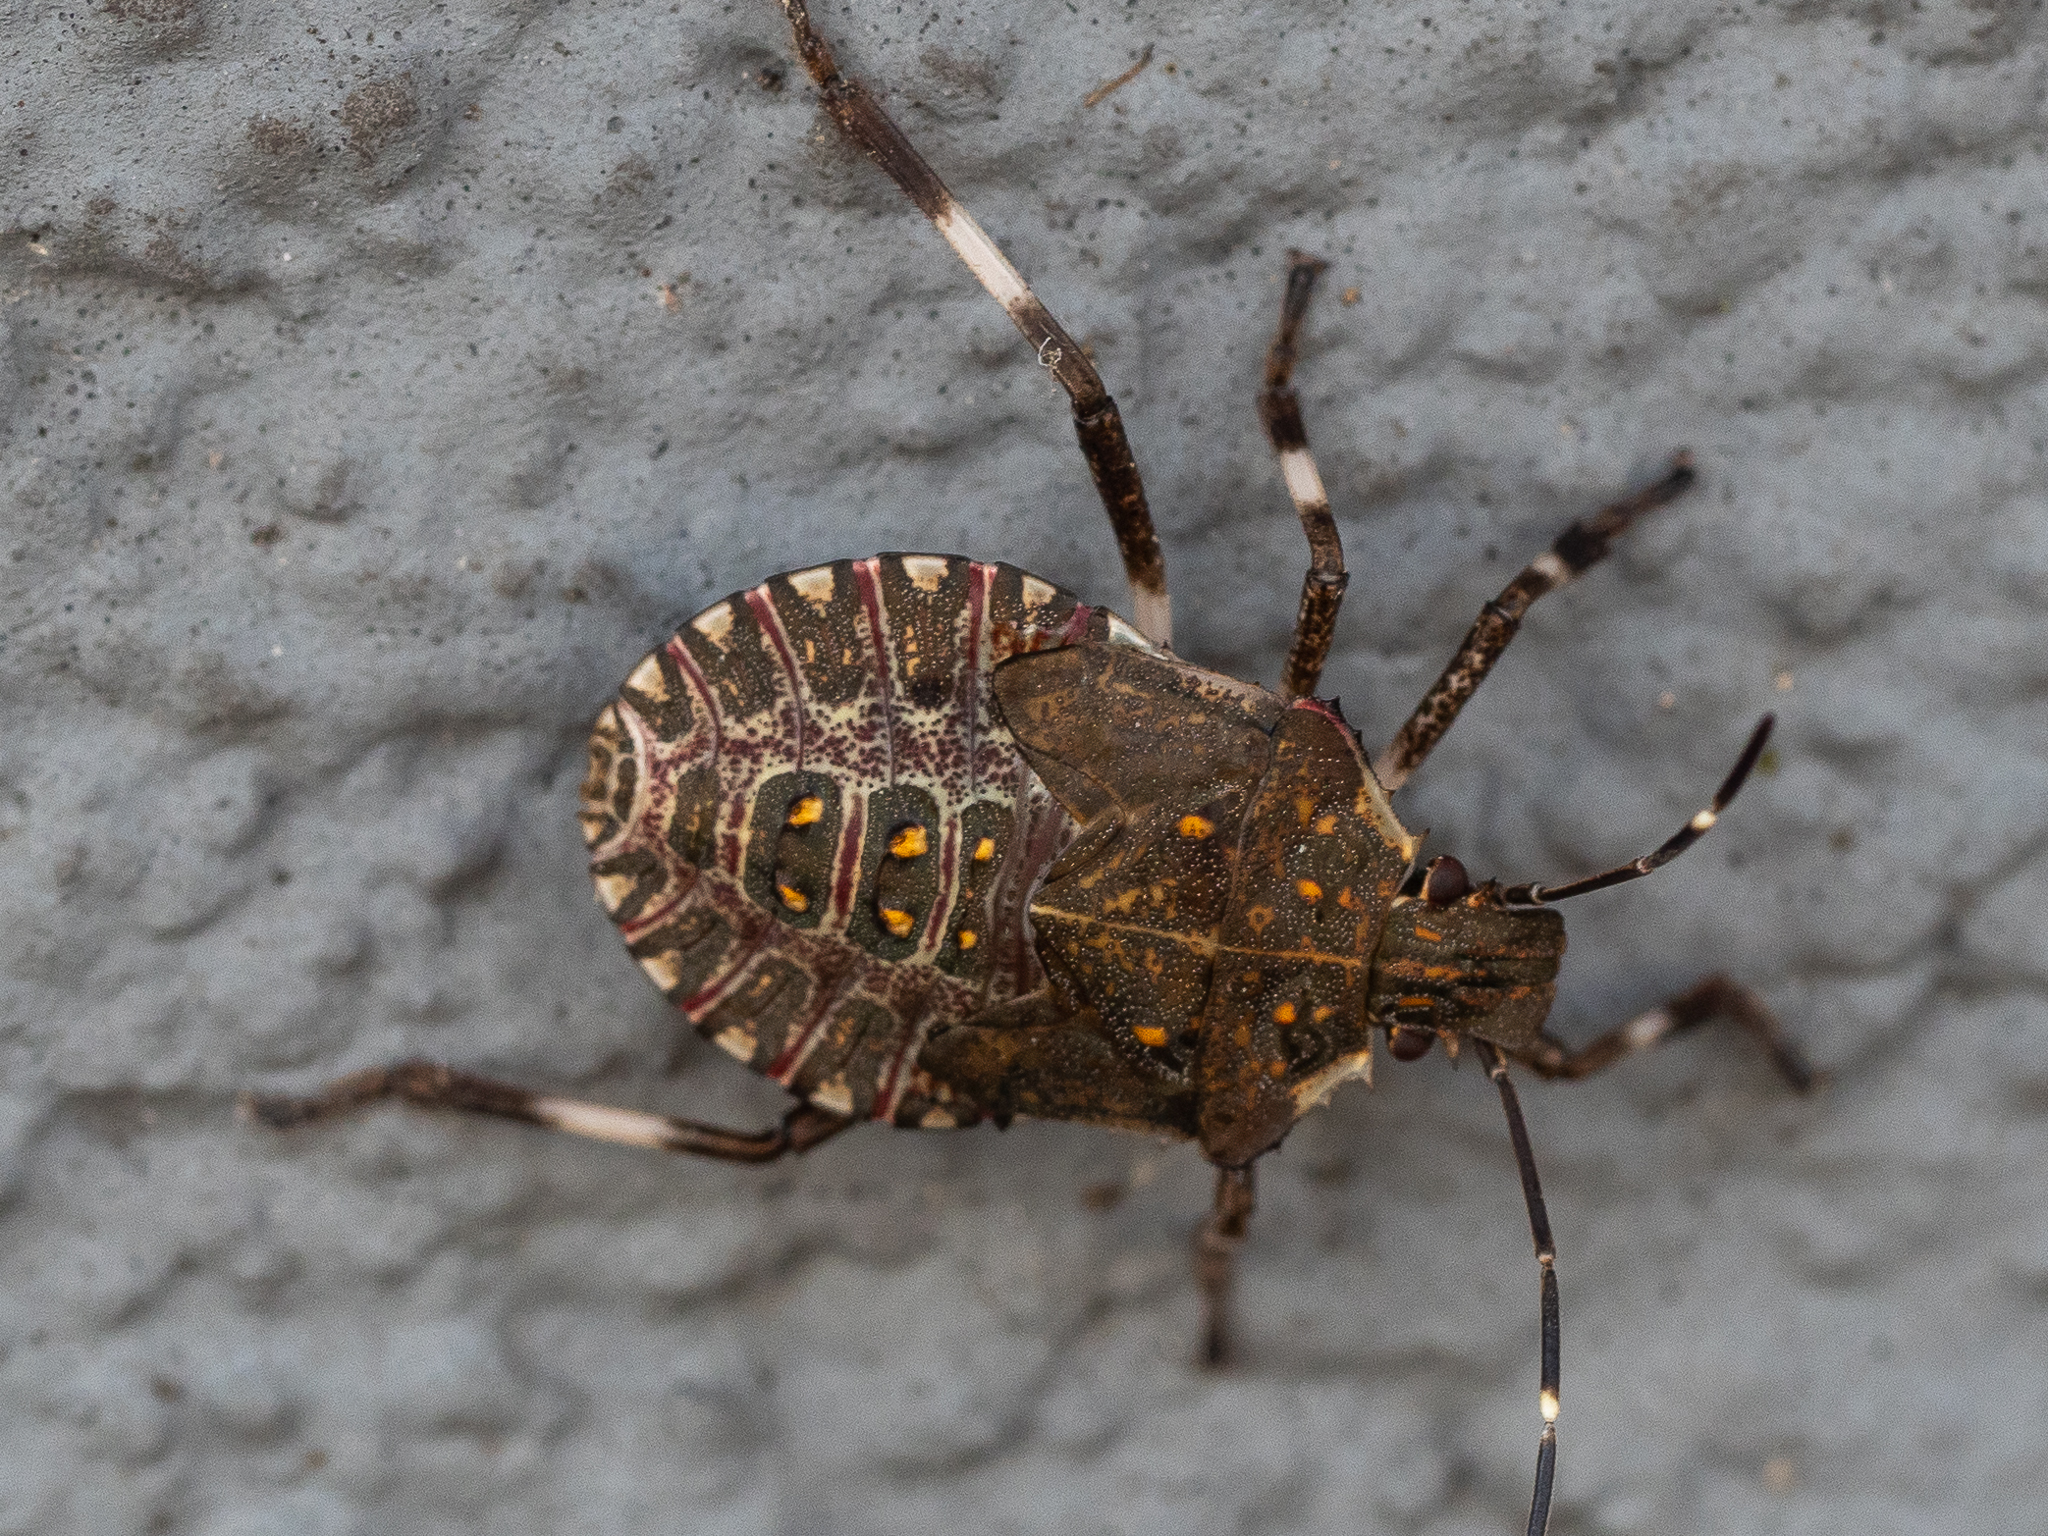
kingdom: Animalia
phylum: Arthropoda
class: Insecta
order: Hemiptera
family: Pentatomidae
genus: Halyomorpha
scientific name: Halyomorpha halys
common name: Brown marmorated stink bug
